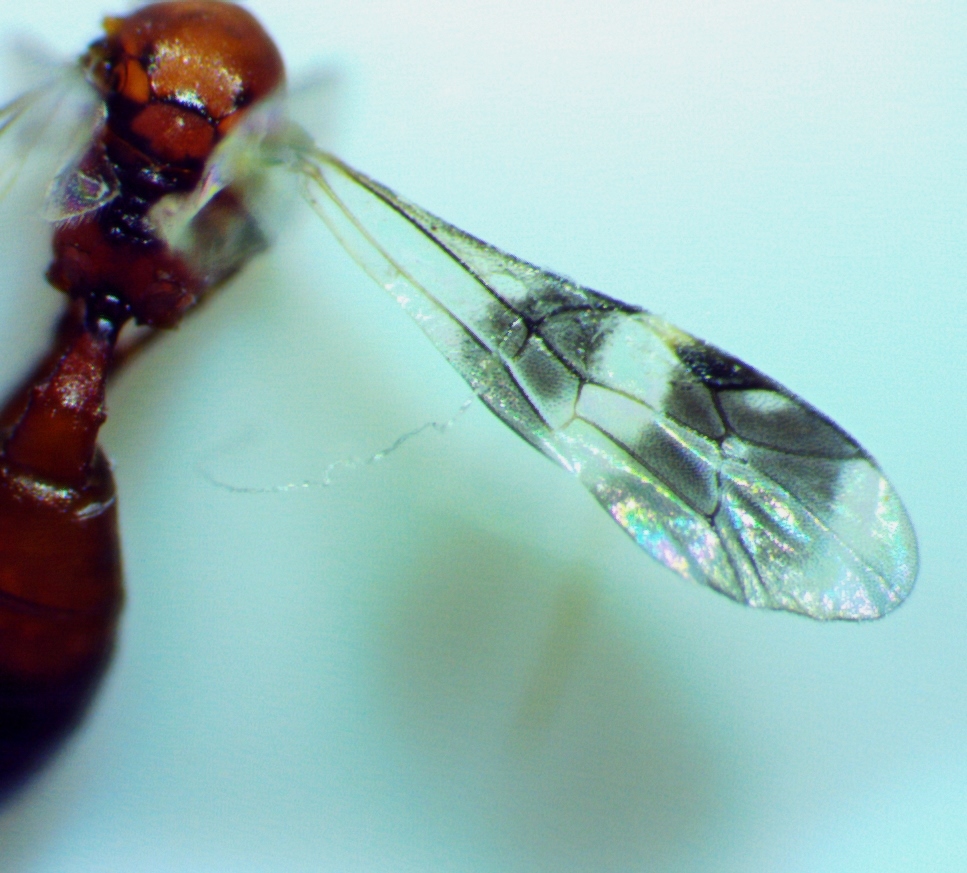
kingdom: Animalia
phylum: Arthropoda
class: Insecta
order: Hymenoptera
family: Ichneumonidae
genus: Gelis
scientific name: Gelis tenellus
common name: Parasitoid wasp
